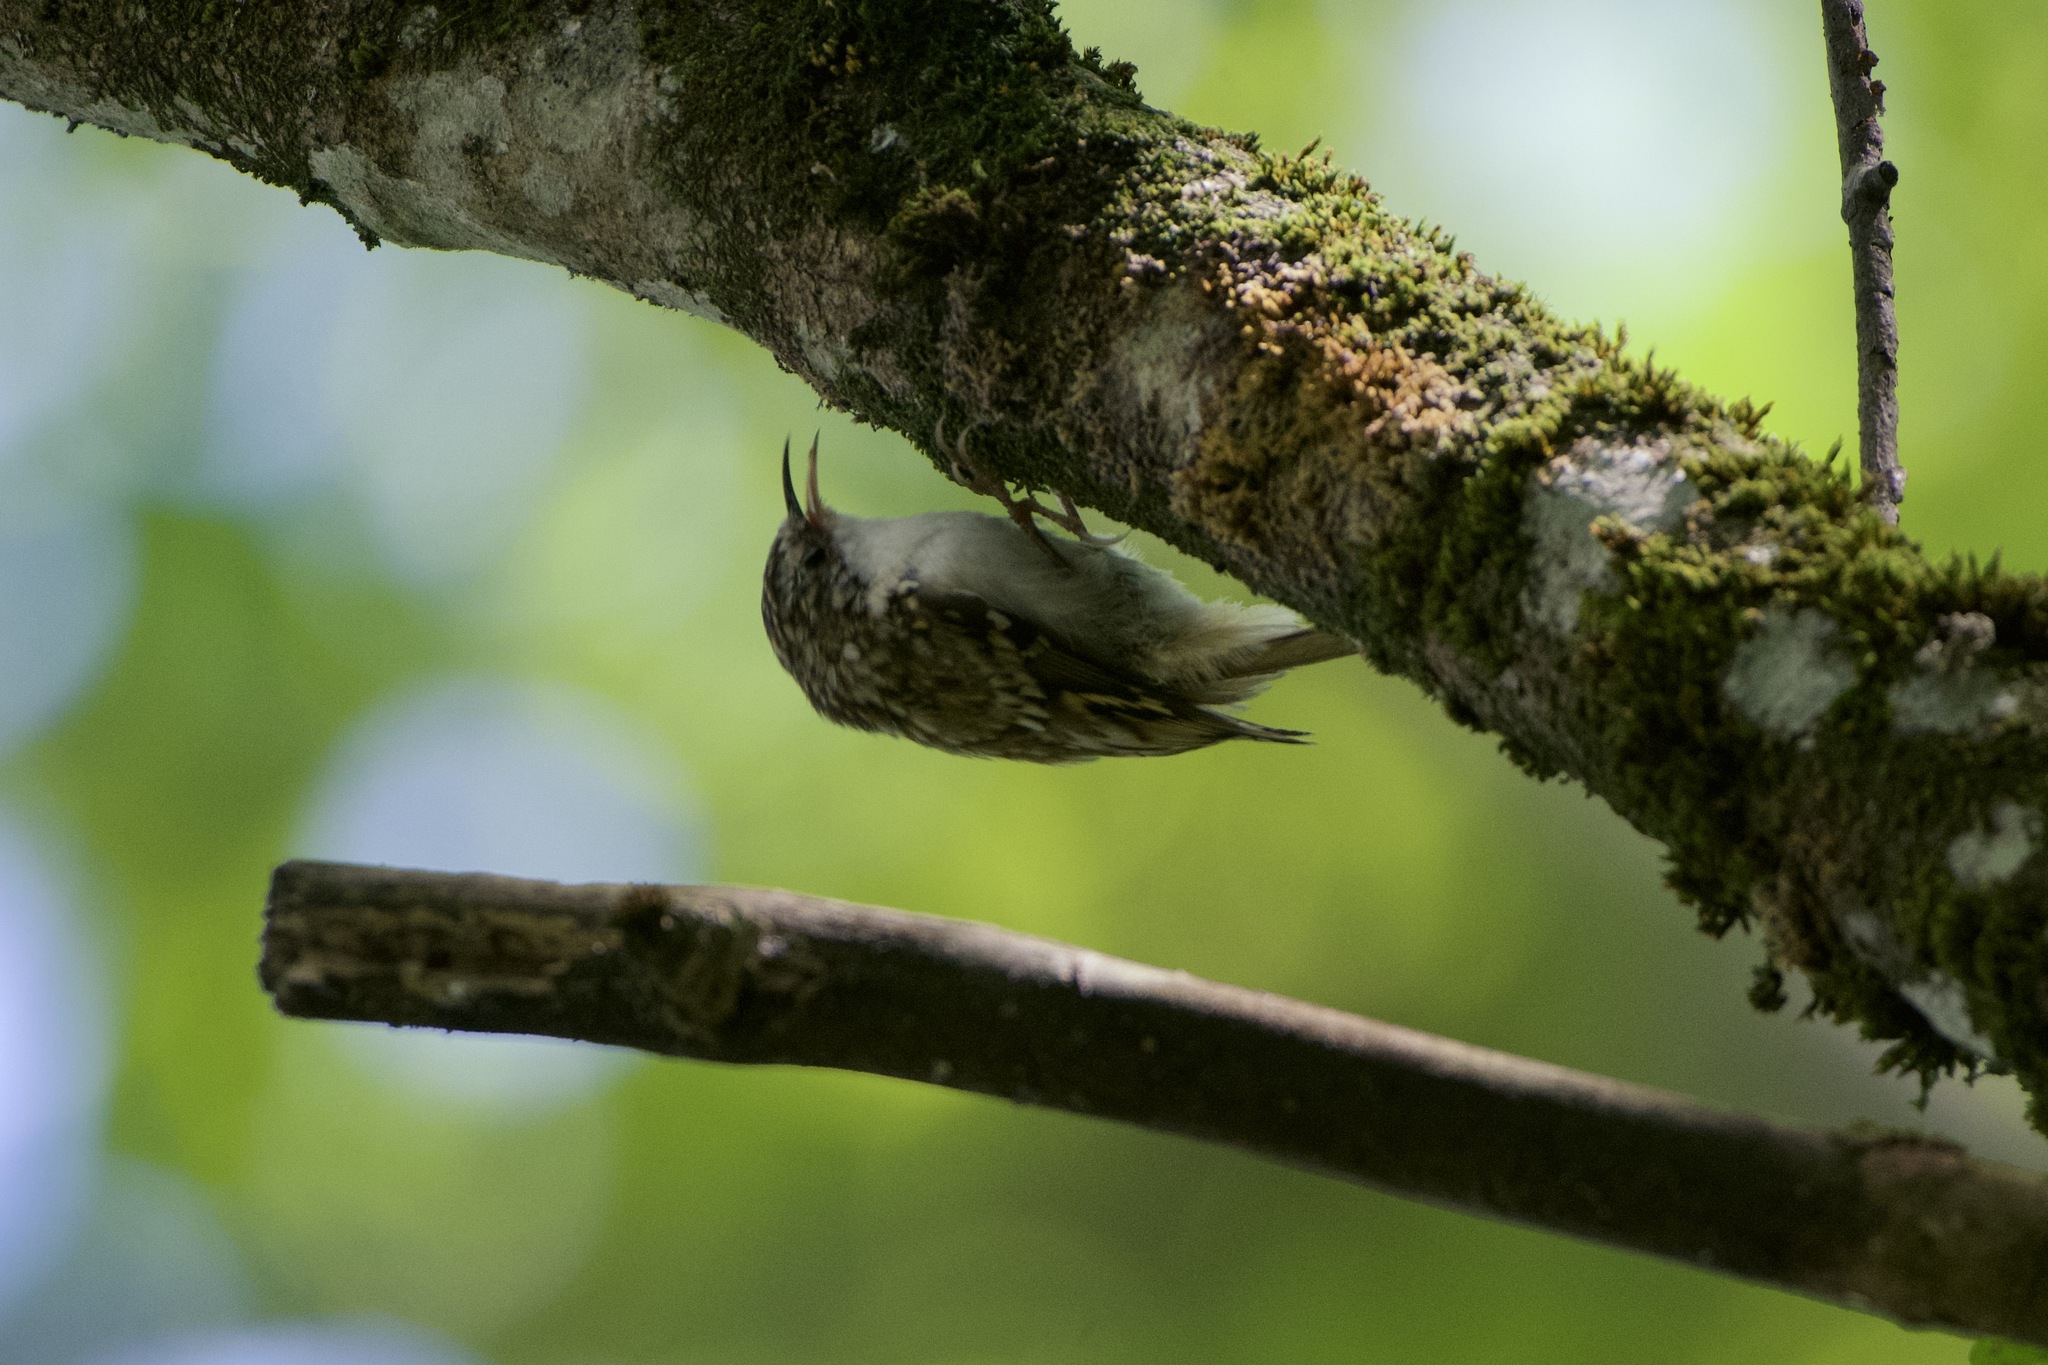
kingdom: Animalia
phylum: Chordata
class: Aves
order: Passeriformes
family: Certhiidae
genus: Certhia
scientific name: Certhia familiaris
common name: Eurasian treecreeper
